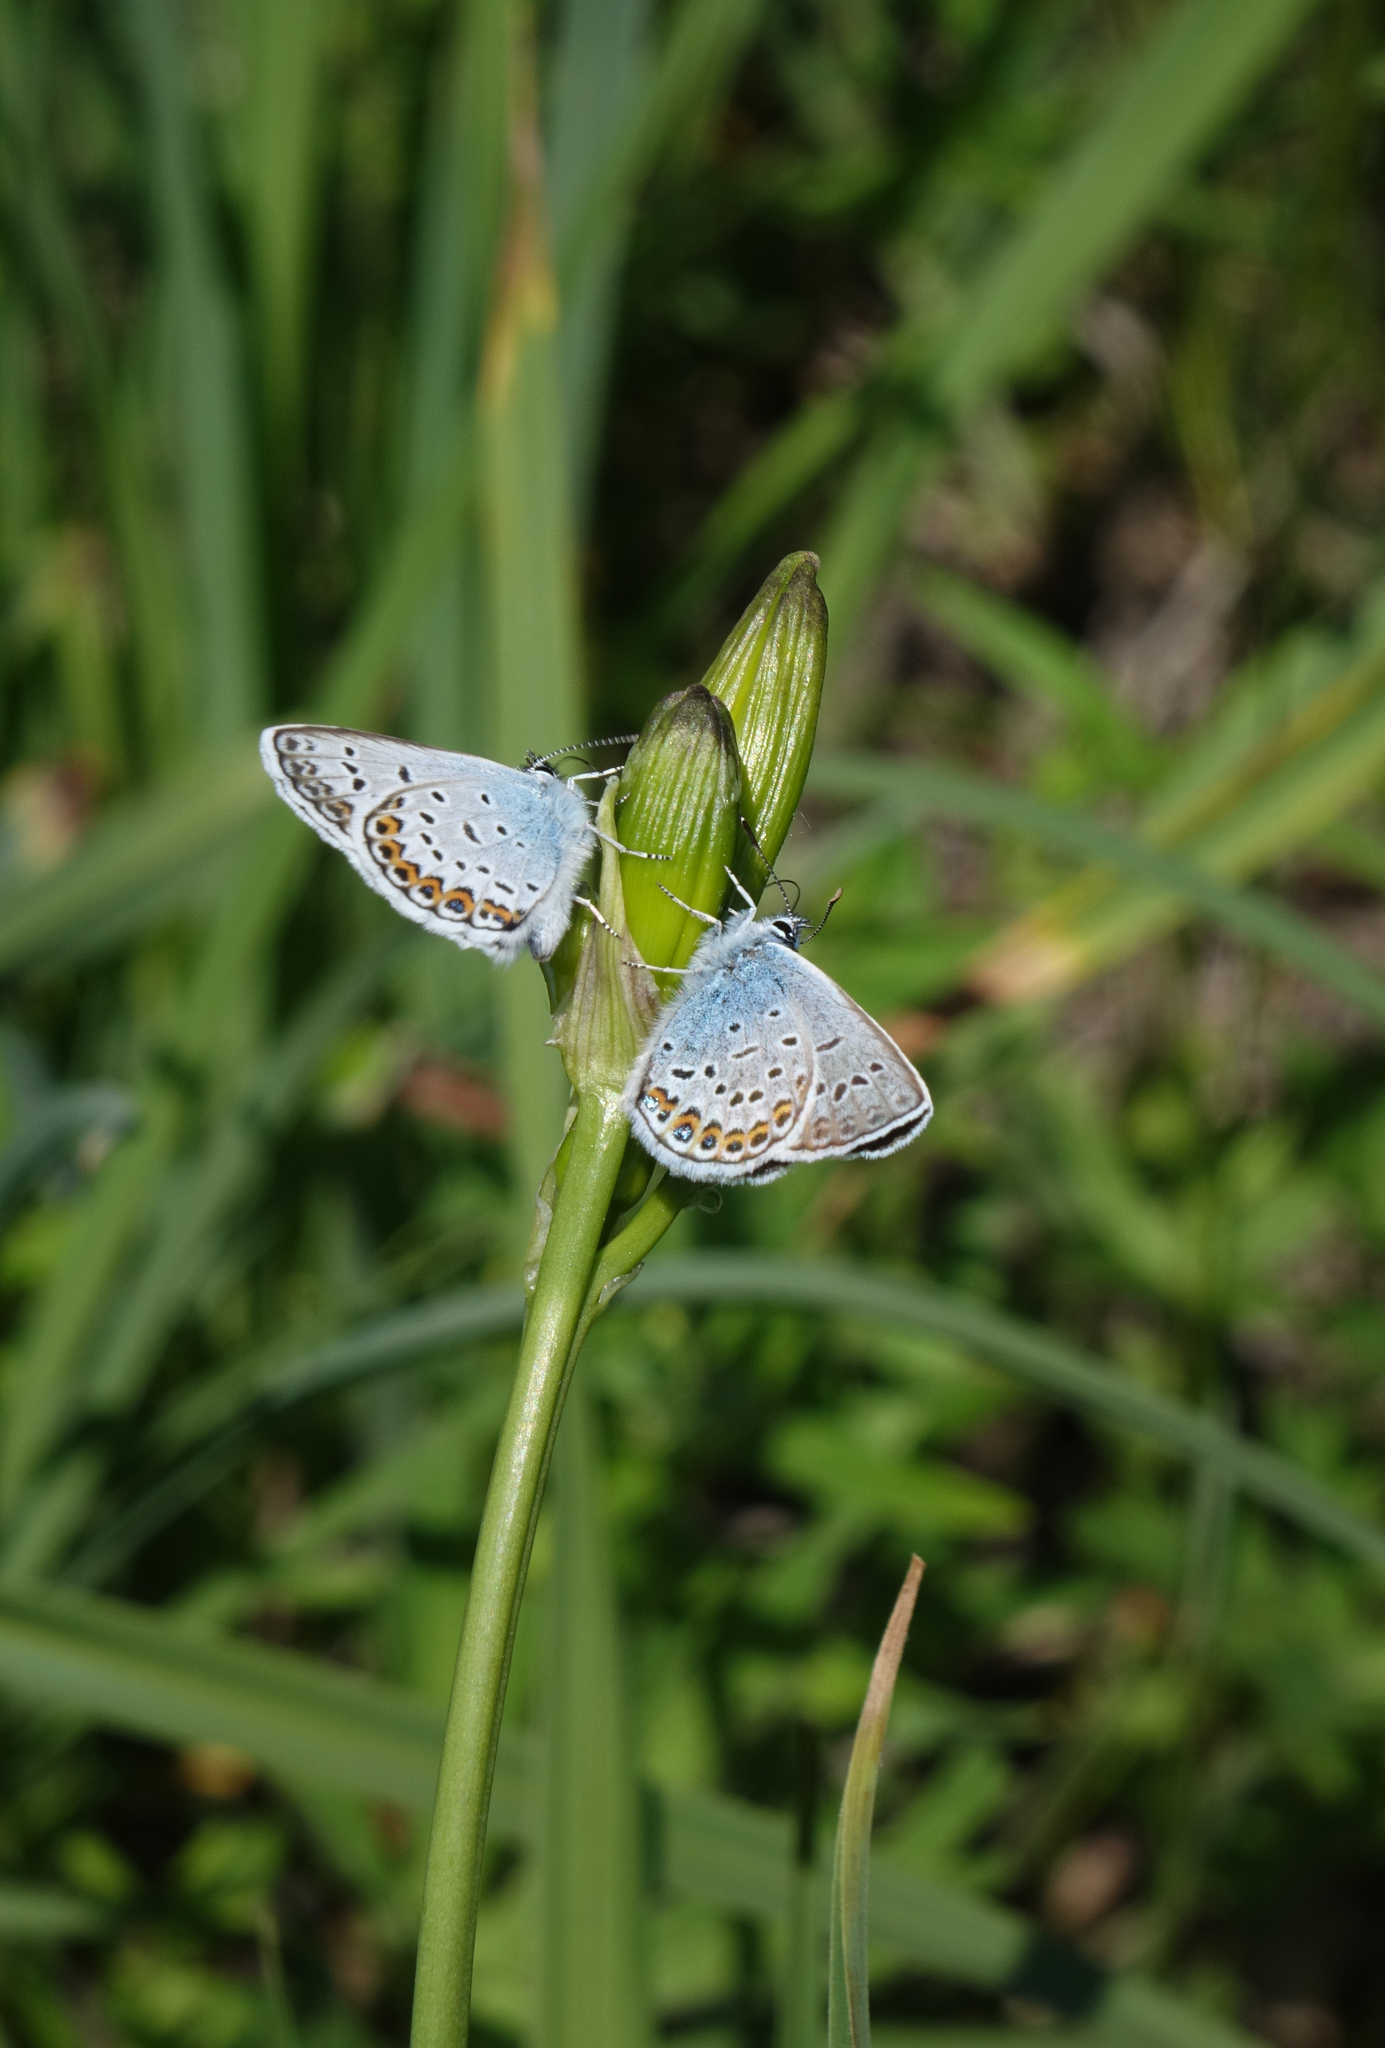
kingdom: Animalia
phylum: Arthropoda
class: Insecta
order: Lepidoptera
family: Lycaenidae
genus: Plebejus
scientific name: Plebejus argus
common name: Silver-studded blue
